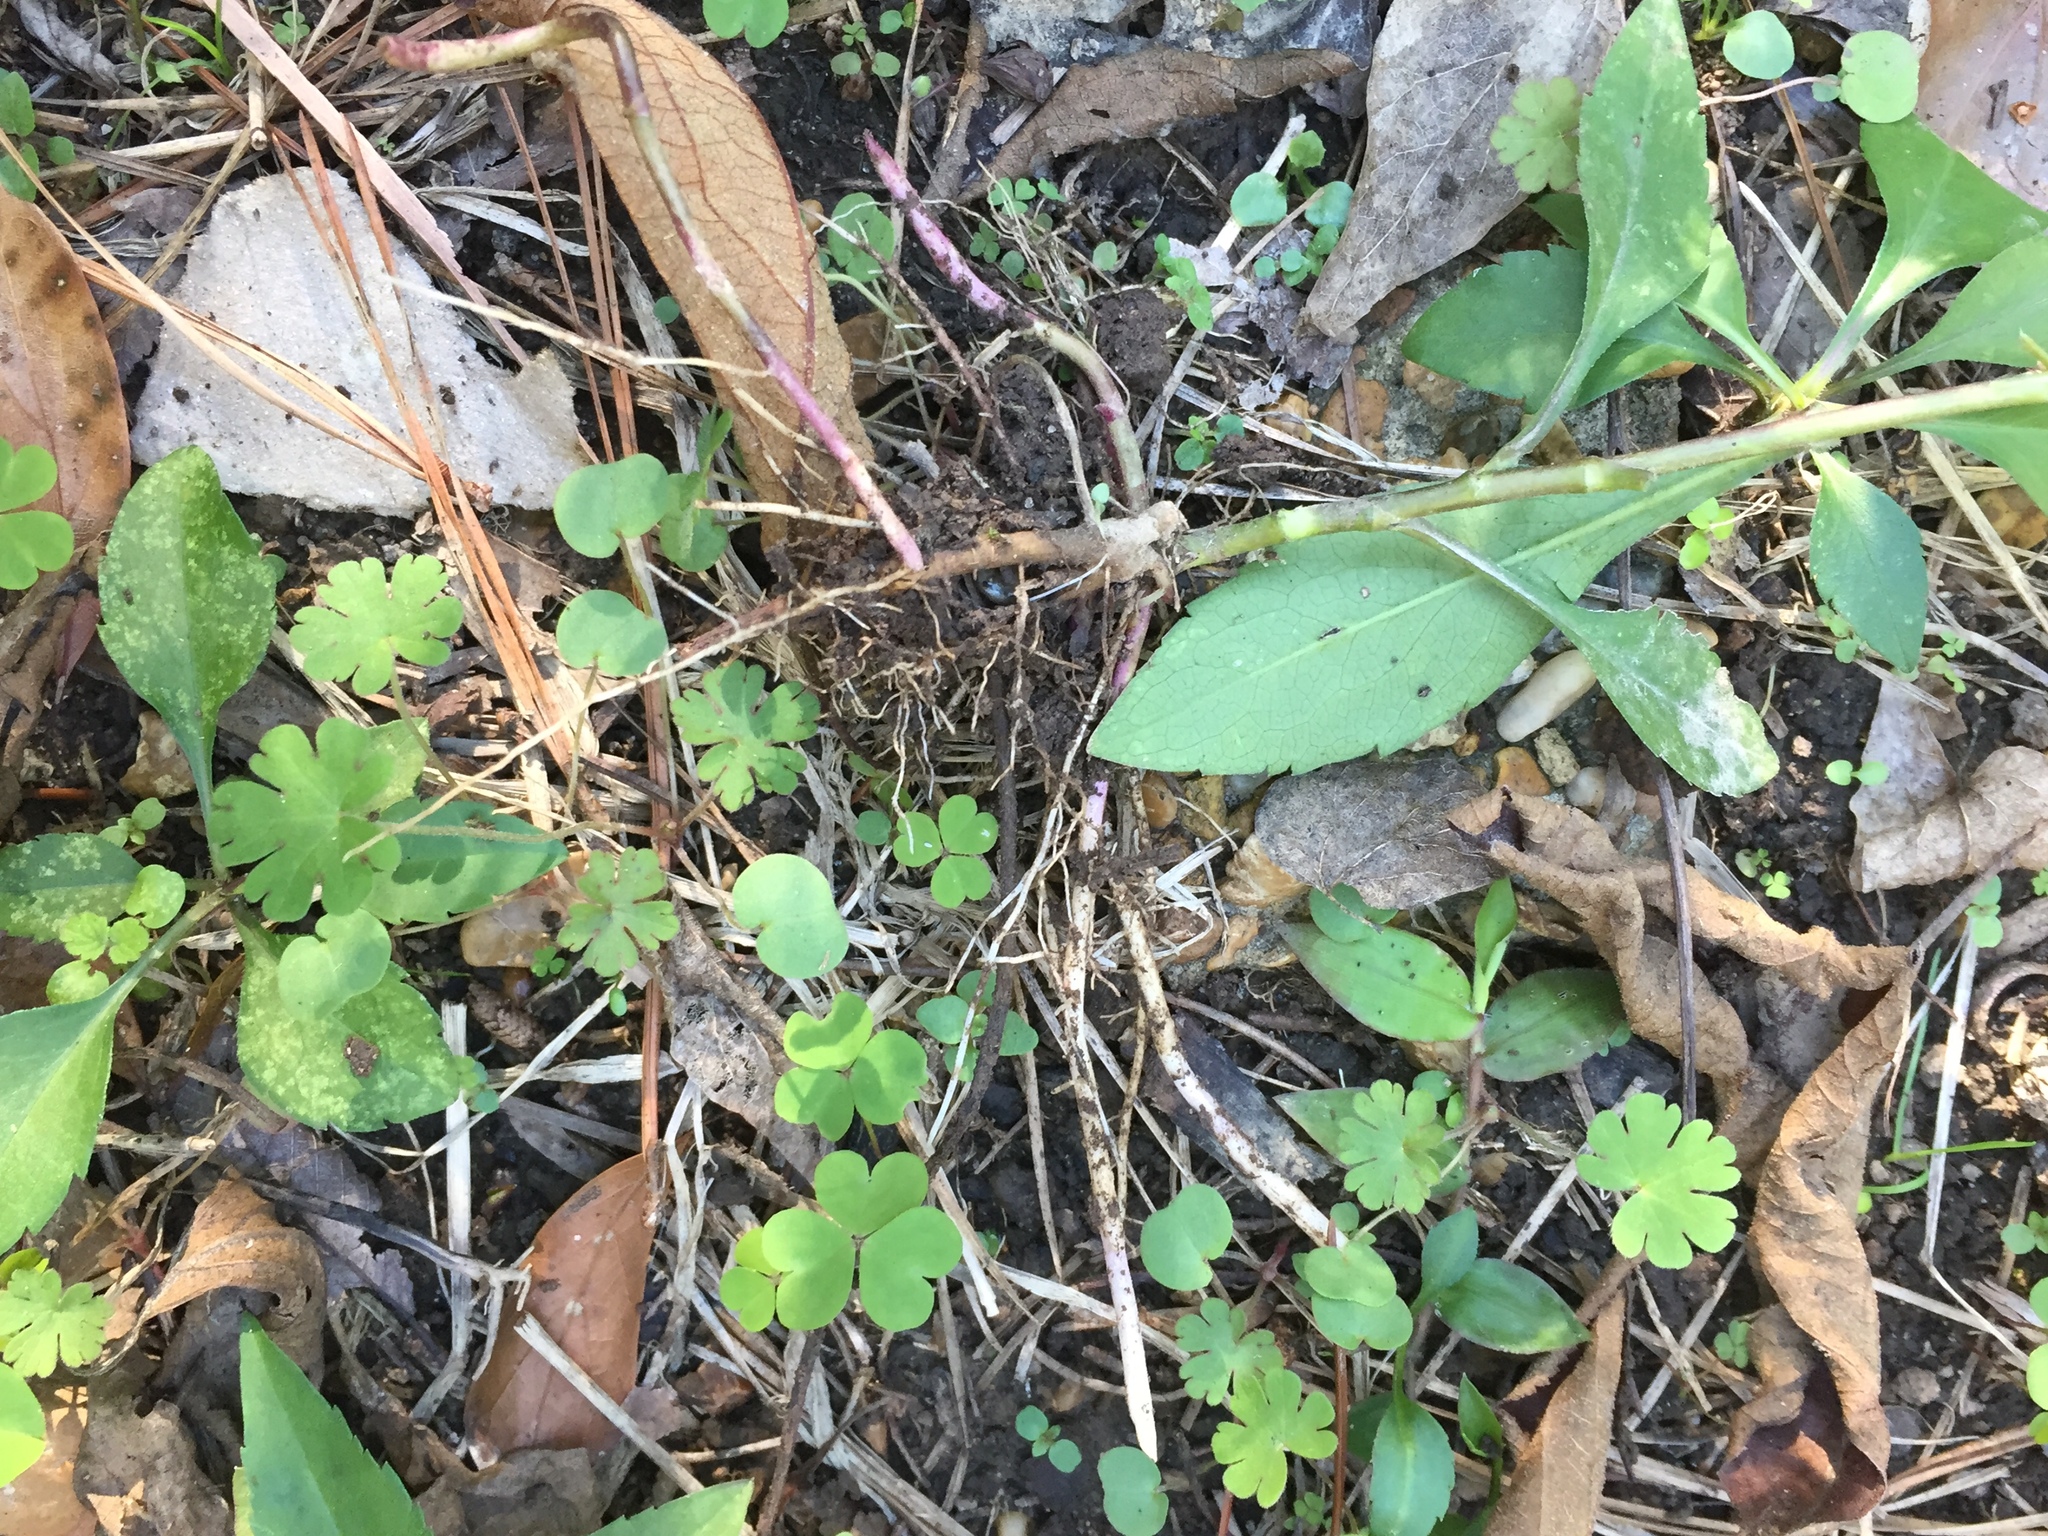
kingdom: Plantae
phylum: Tracheophyta
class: Magnoliopsida
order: Asterales
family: Asteraceae
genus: Symphyotrichum
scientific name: Symphyotrichum ontarionis
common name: Bottomland aster
